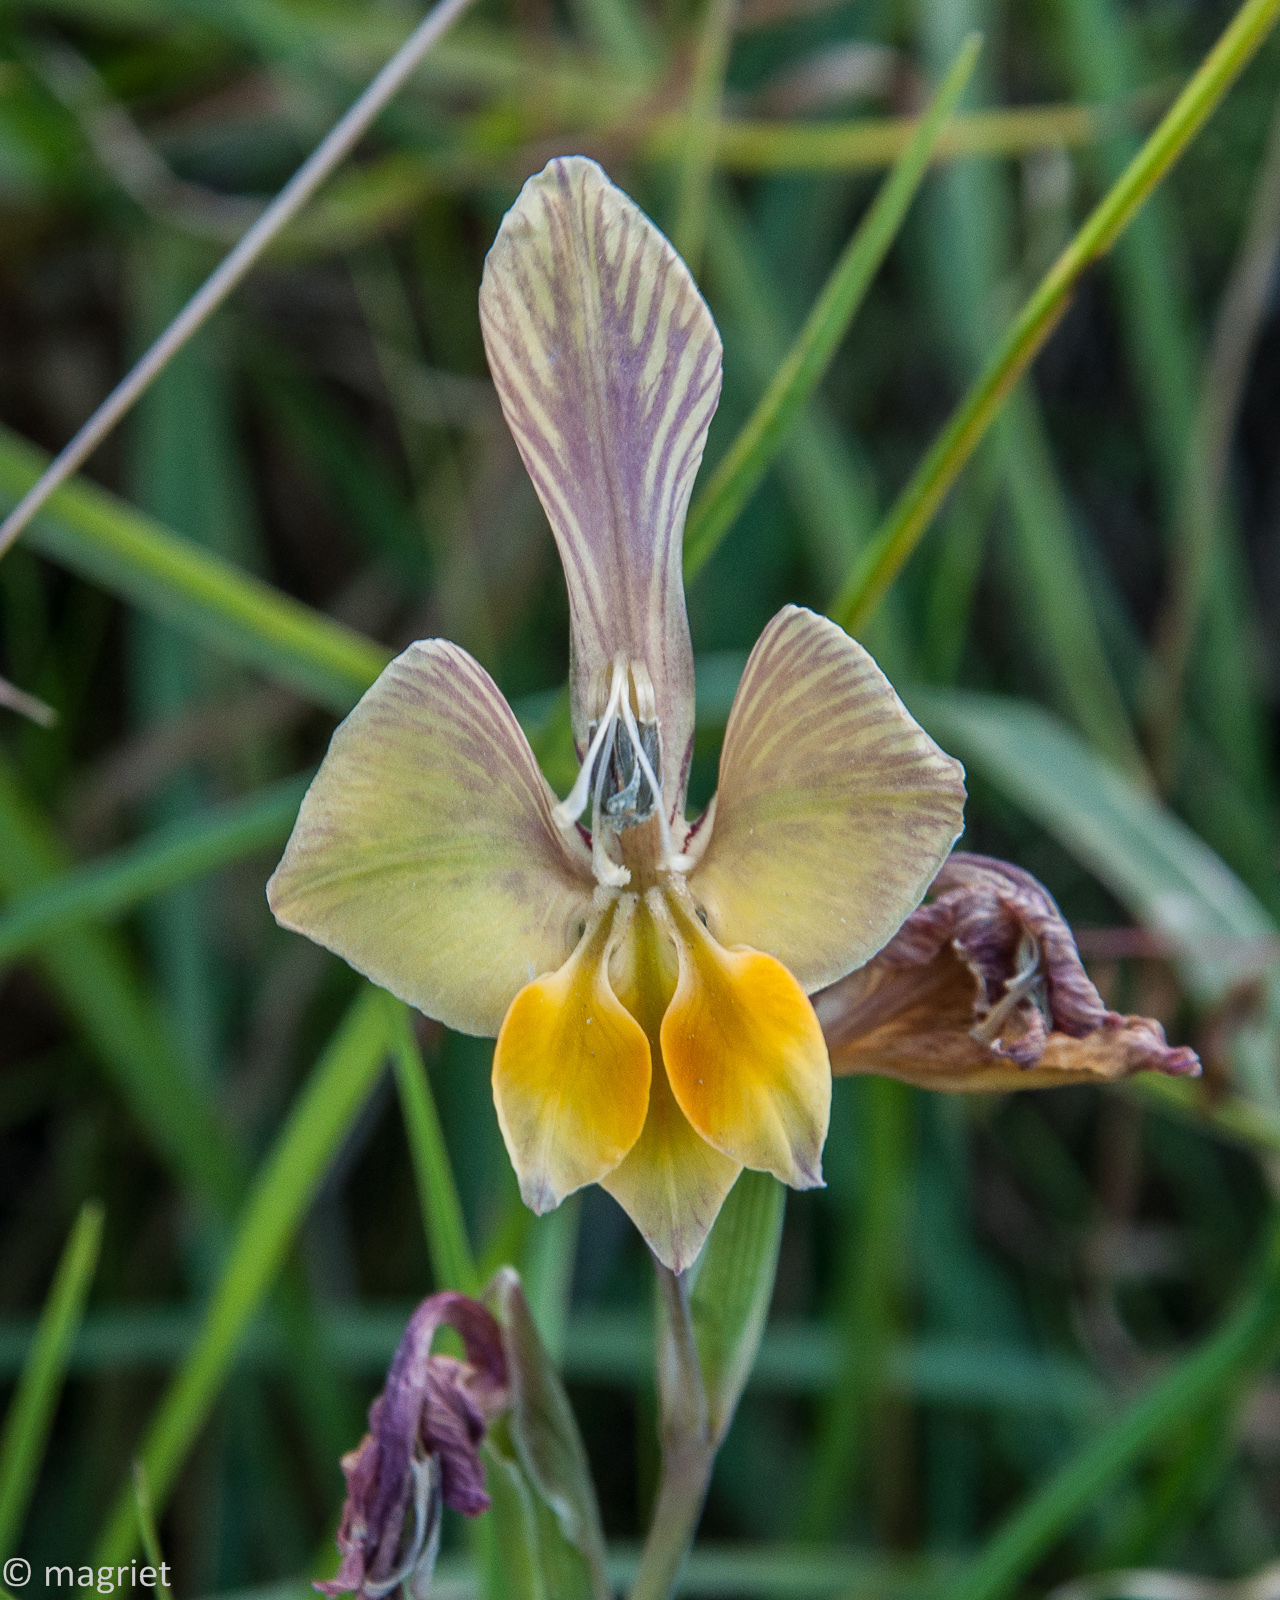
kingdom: Plantae
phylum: Tracheophyta
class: Liliopsida
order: Asparagales
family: Iridaceae
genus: Gladiolus
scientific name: Gladiolus virescens
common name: Yellow kalkoentjie
